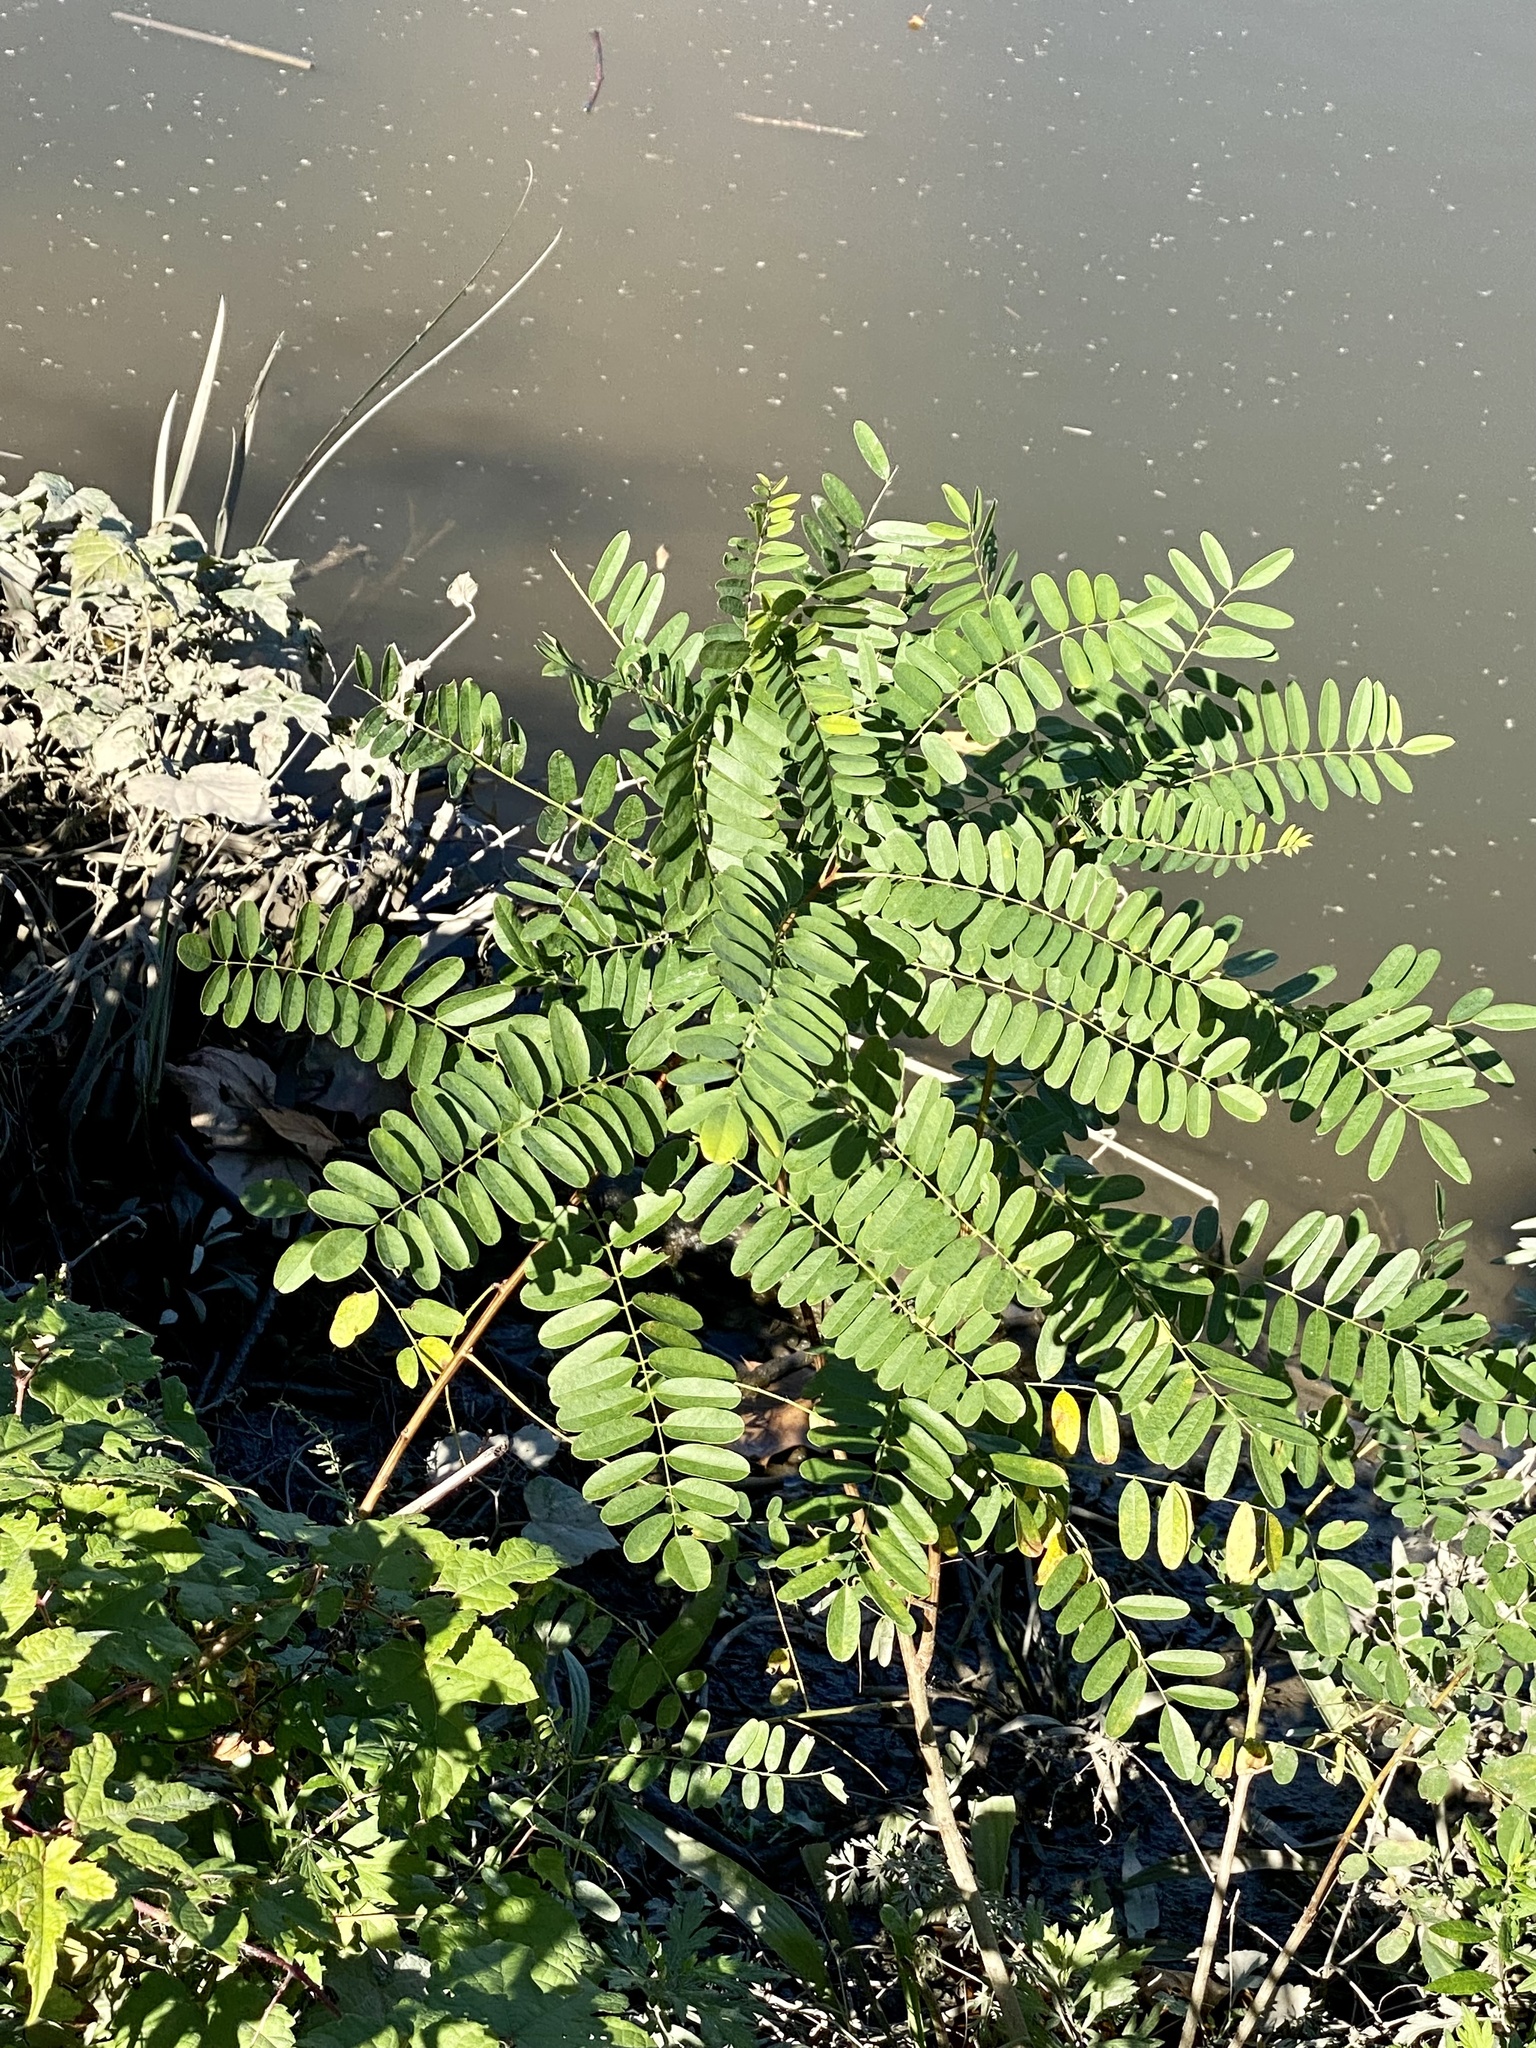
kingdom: Plantae
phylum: Tracheophyta
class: Magnoliopsida
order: Fabales
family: Fabaceae
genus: Amorpha
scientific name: Amorpha fruticosa
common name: False indigo
